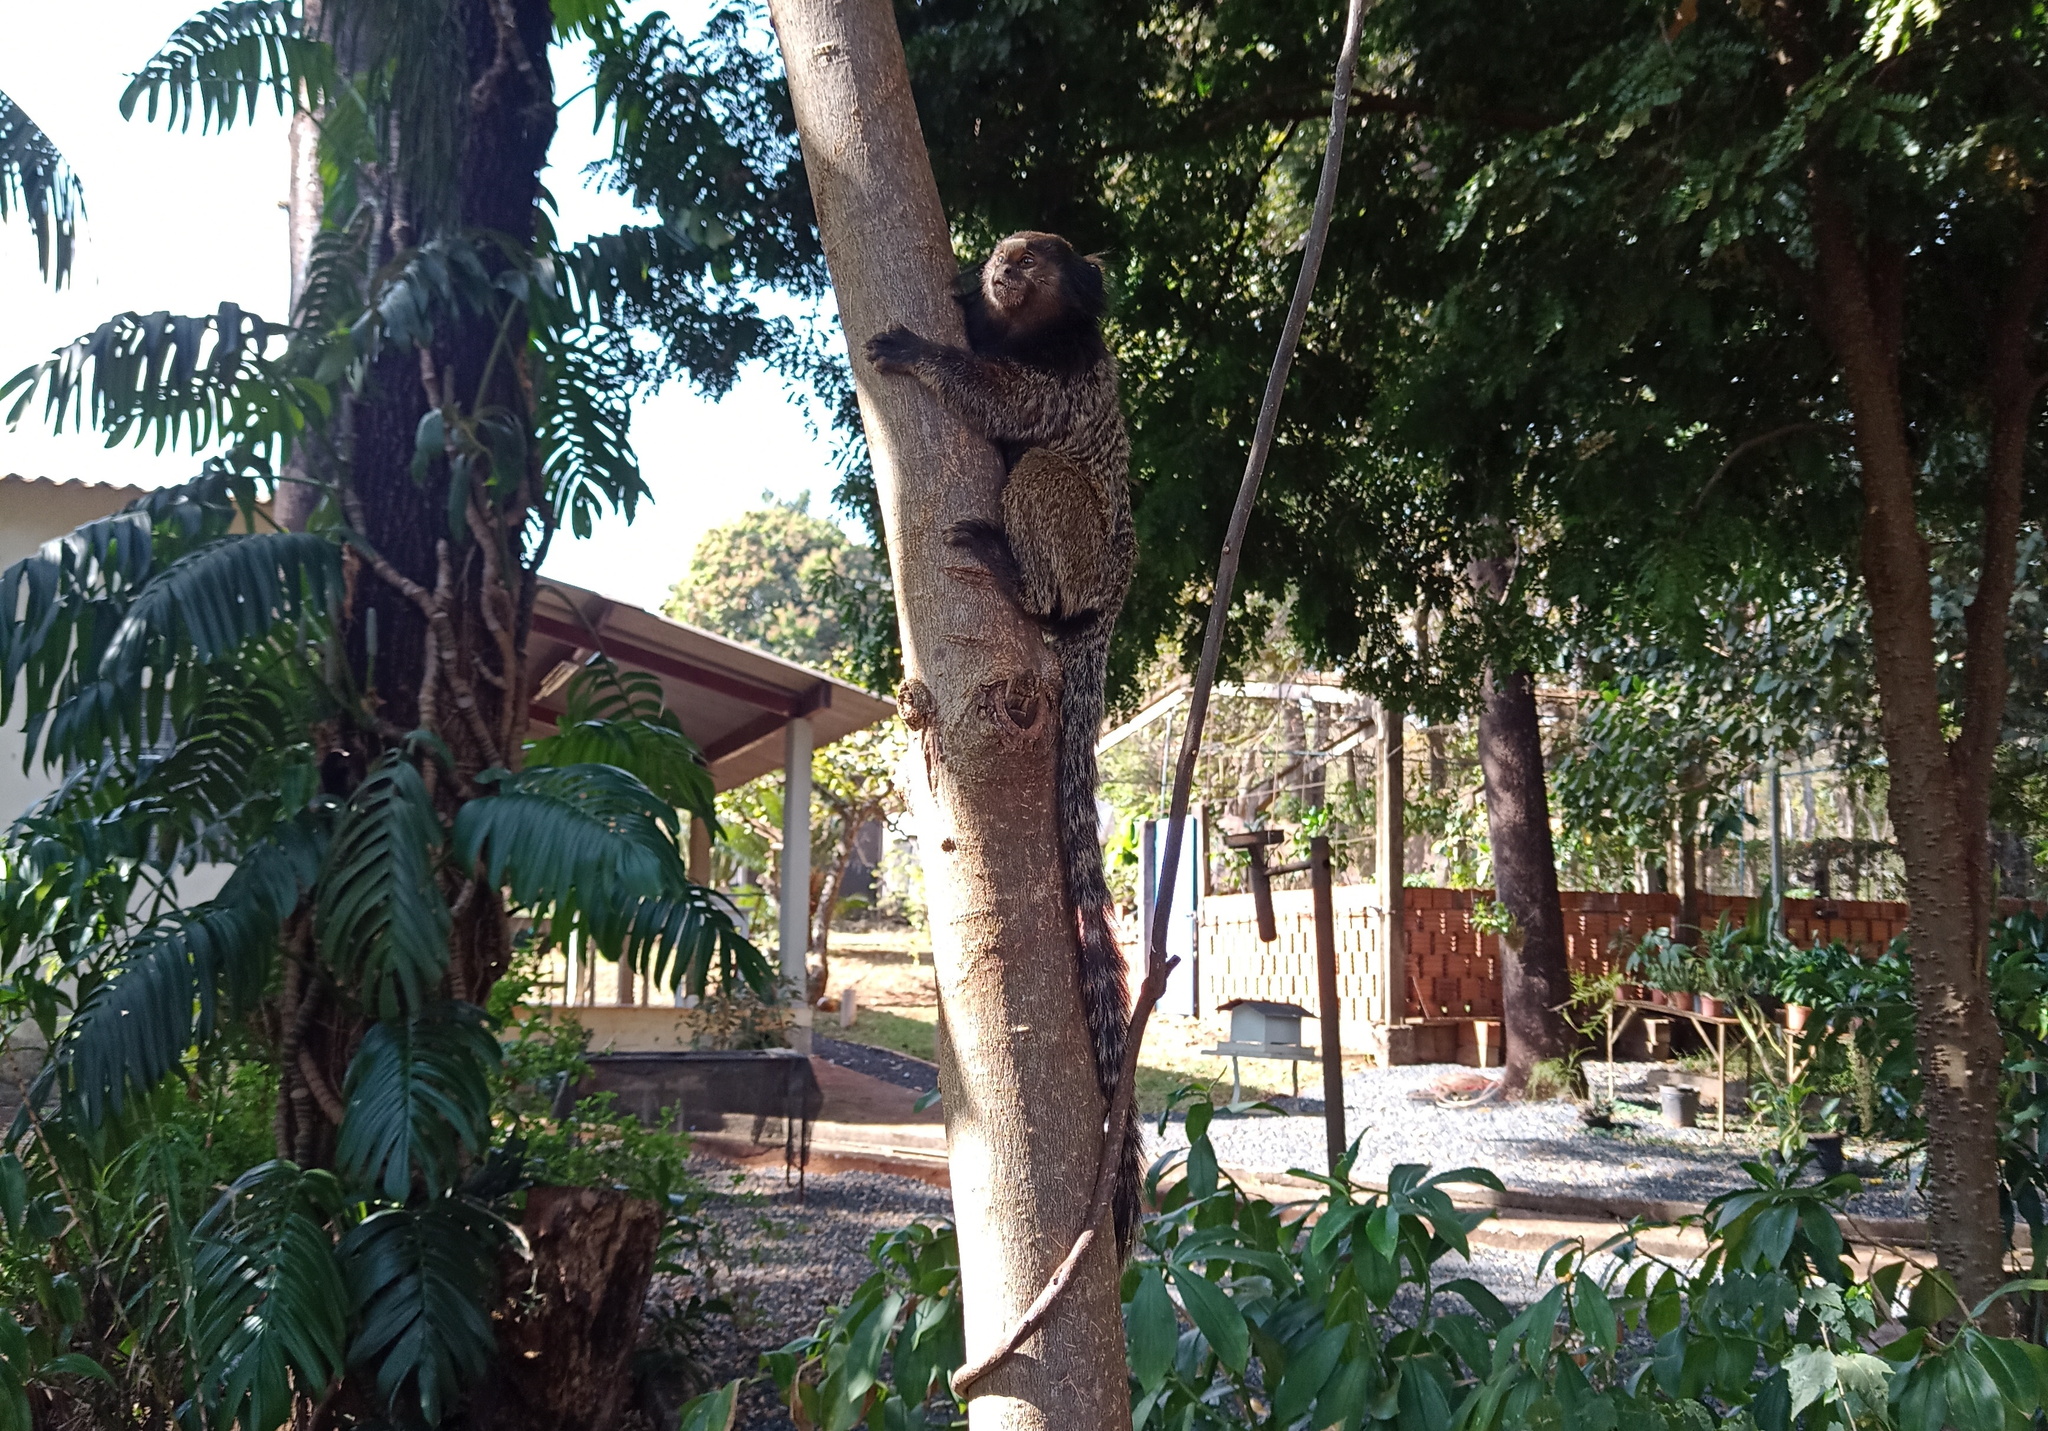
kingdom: Animalia
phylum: Chordata
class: Mammalia
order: Primates
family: Callitrichidae
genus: Callithrix
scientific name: Callithrix penicillata
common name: Black-tufted marmoset
